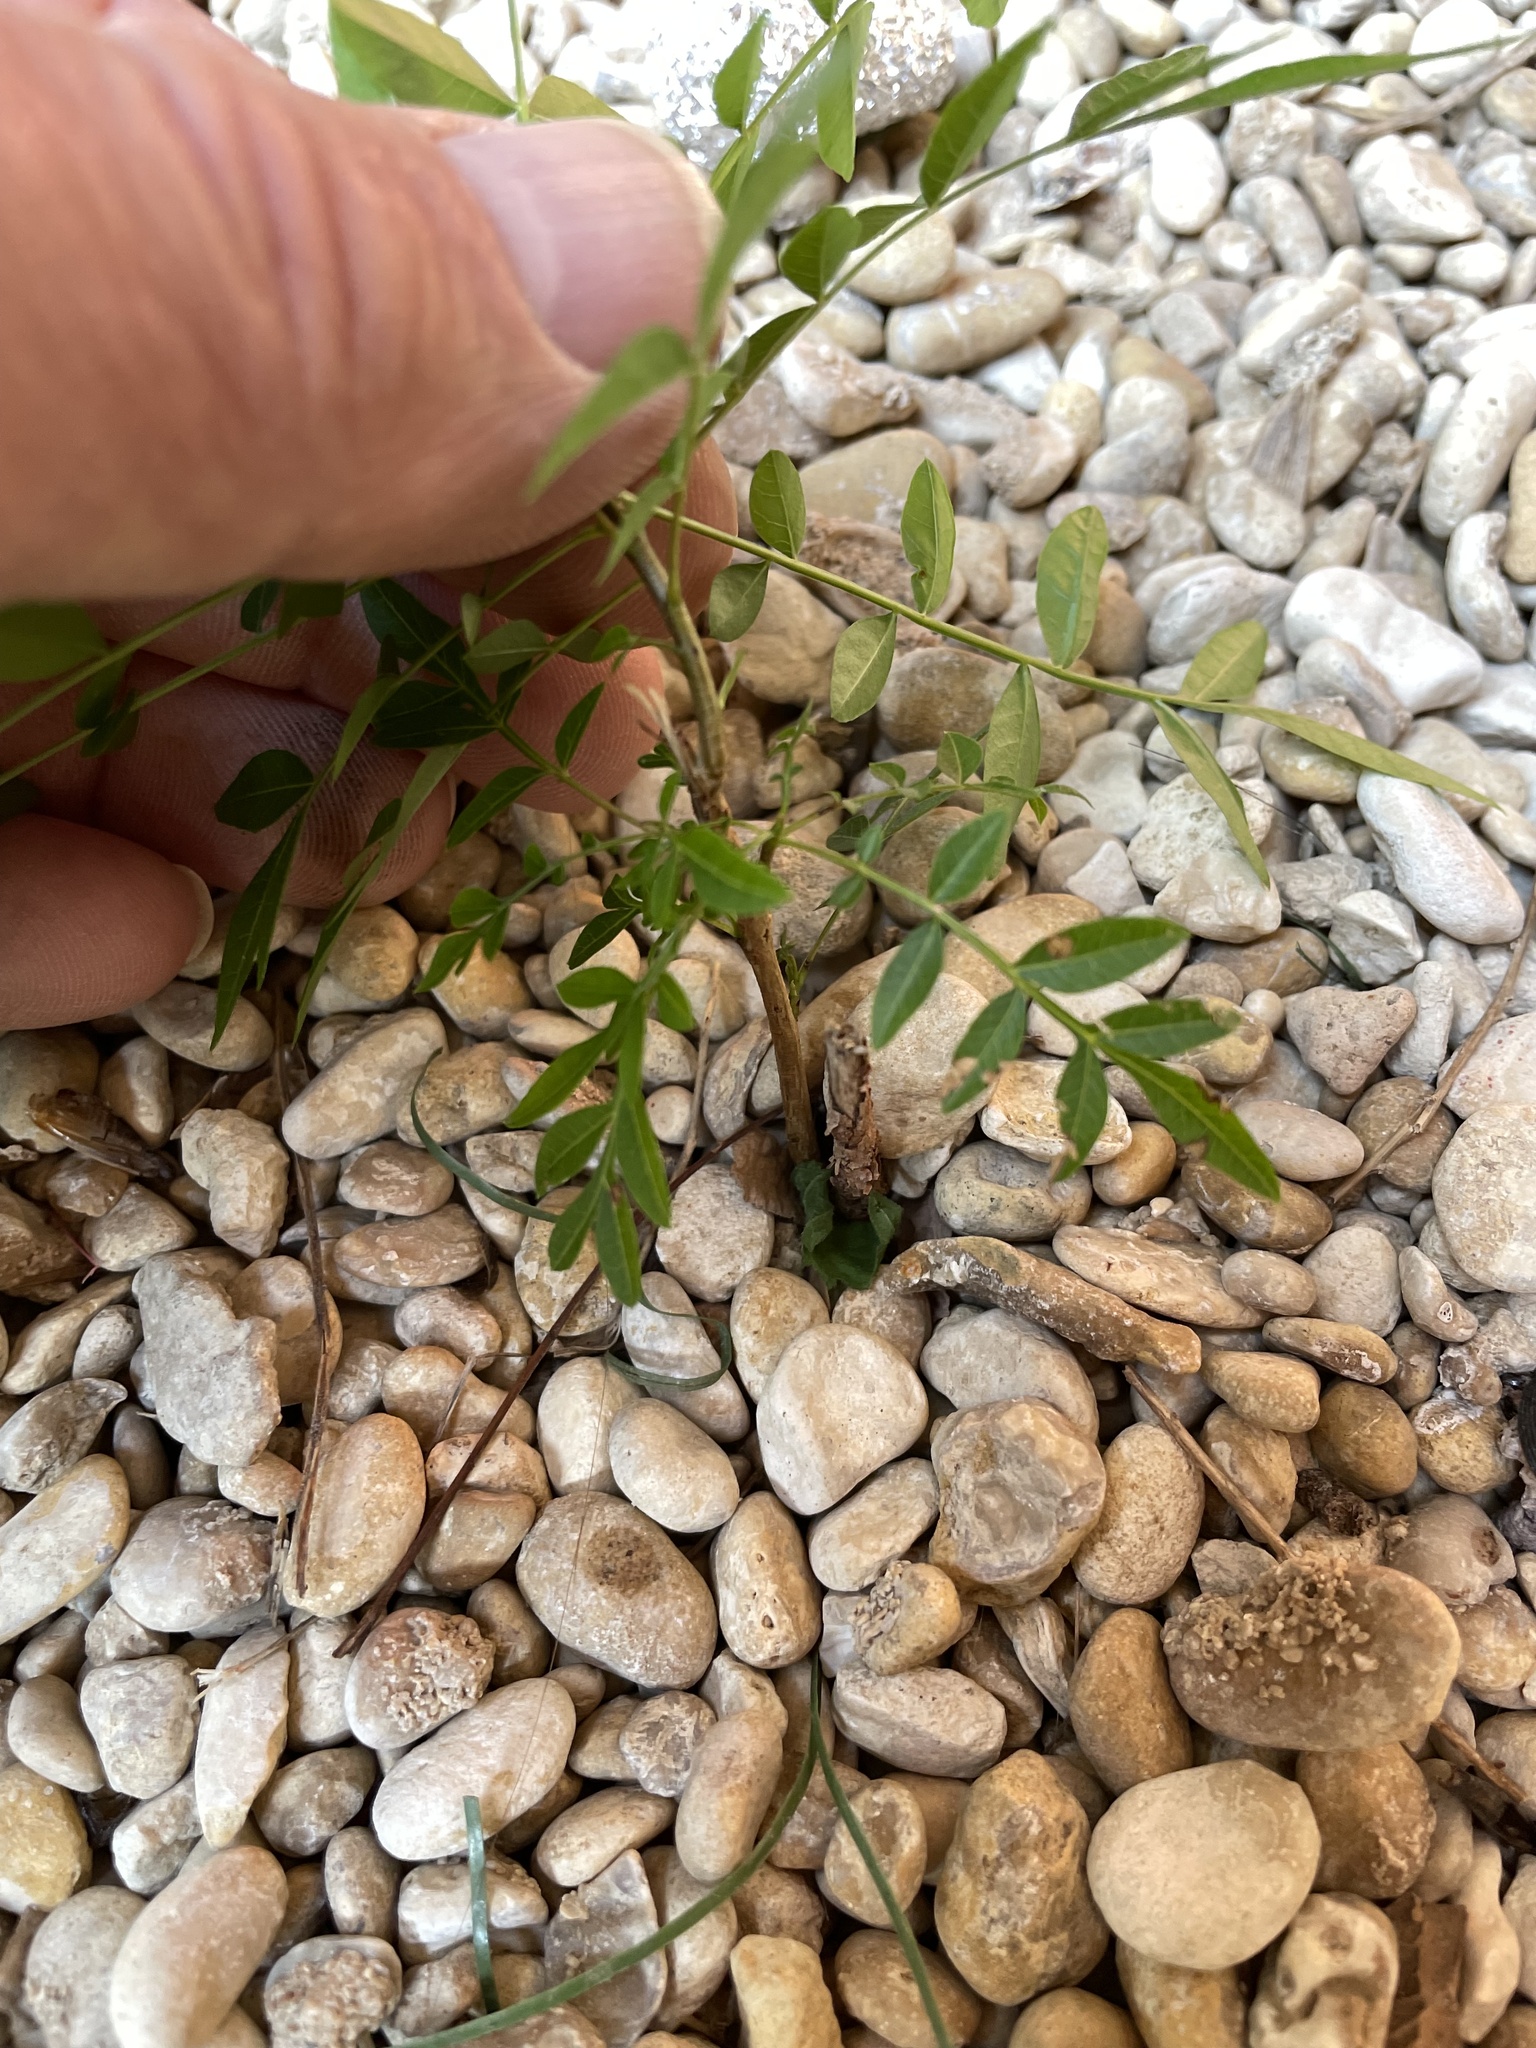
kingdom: Plantae
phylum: Tracheophyta
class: Magnoliopsida
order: Sapindales
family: Anacardiaceae
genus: Pistacia
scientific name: Pistacia chinensis
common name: Chinese pistache
